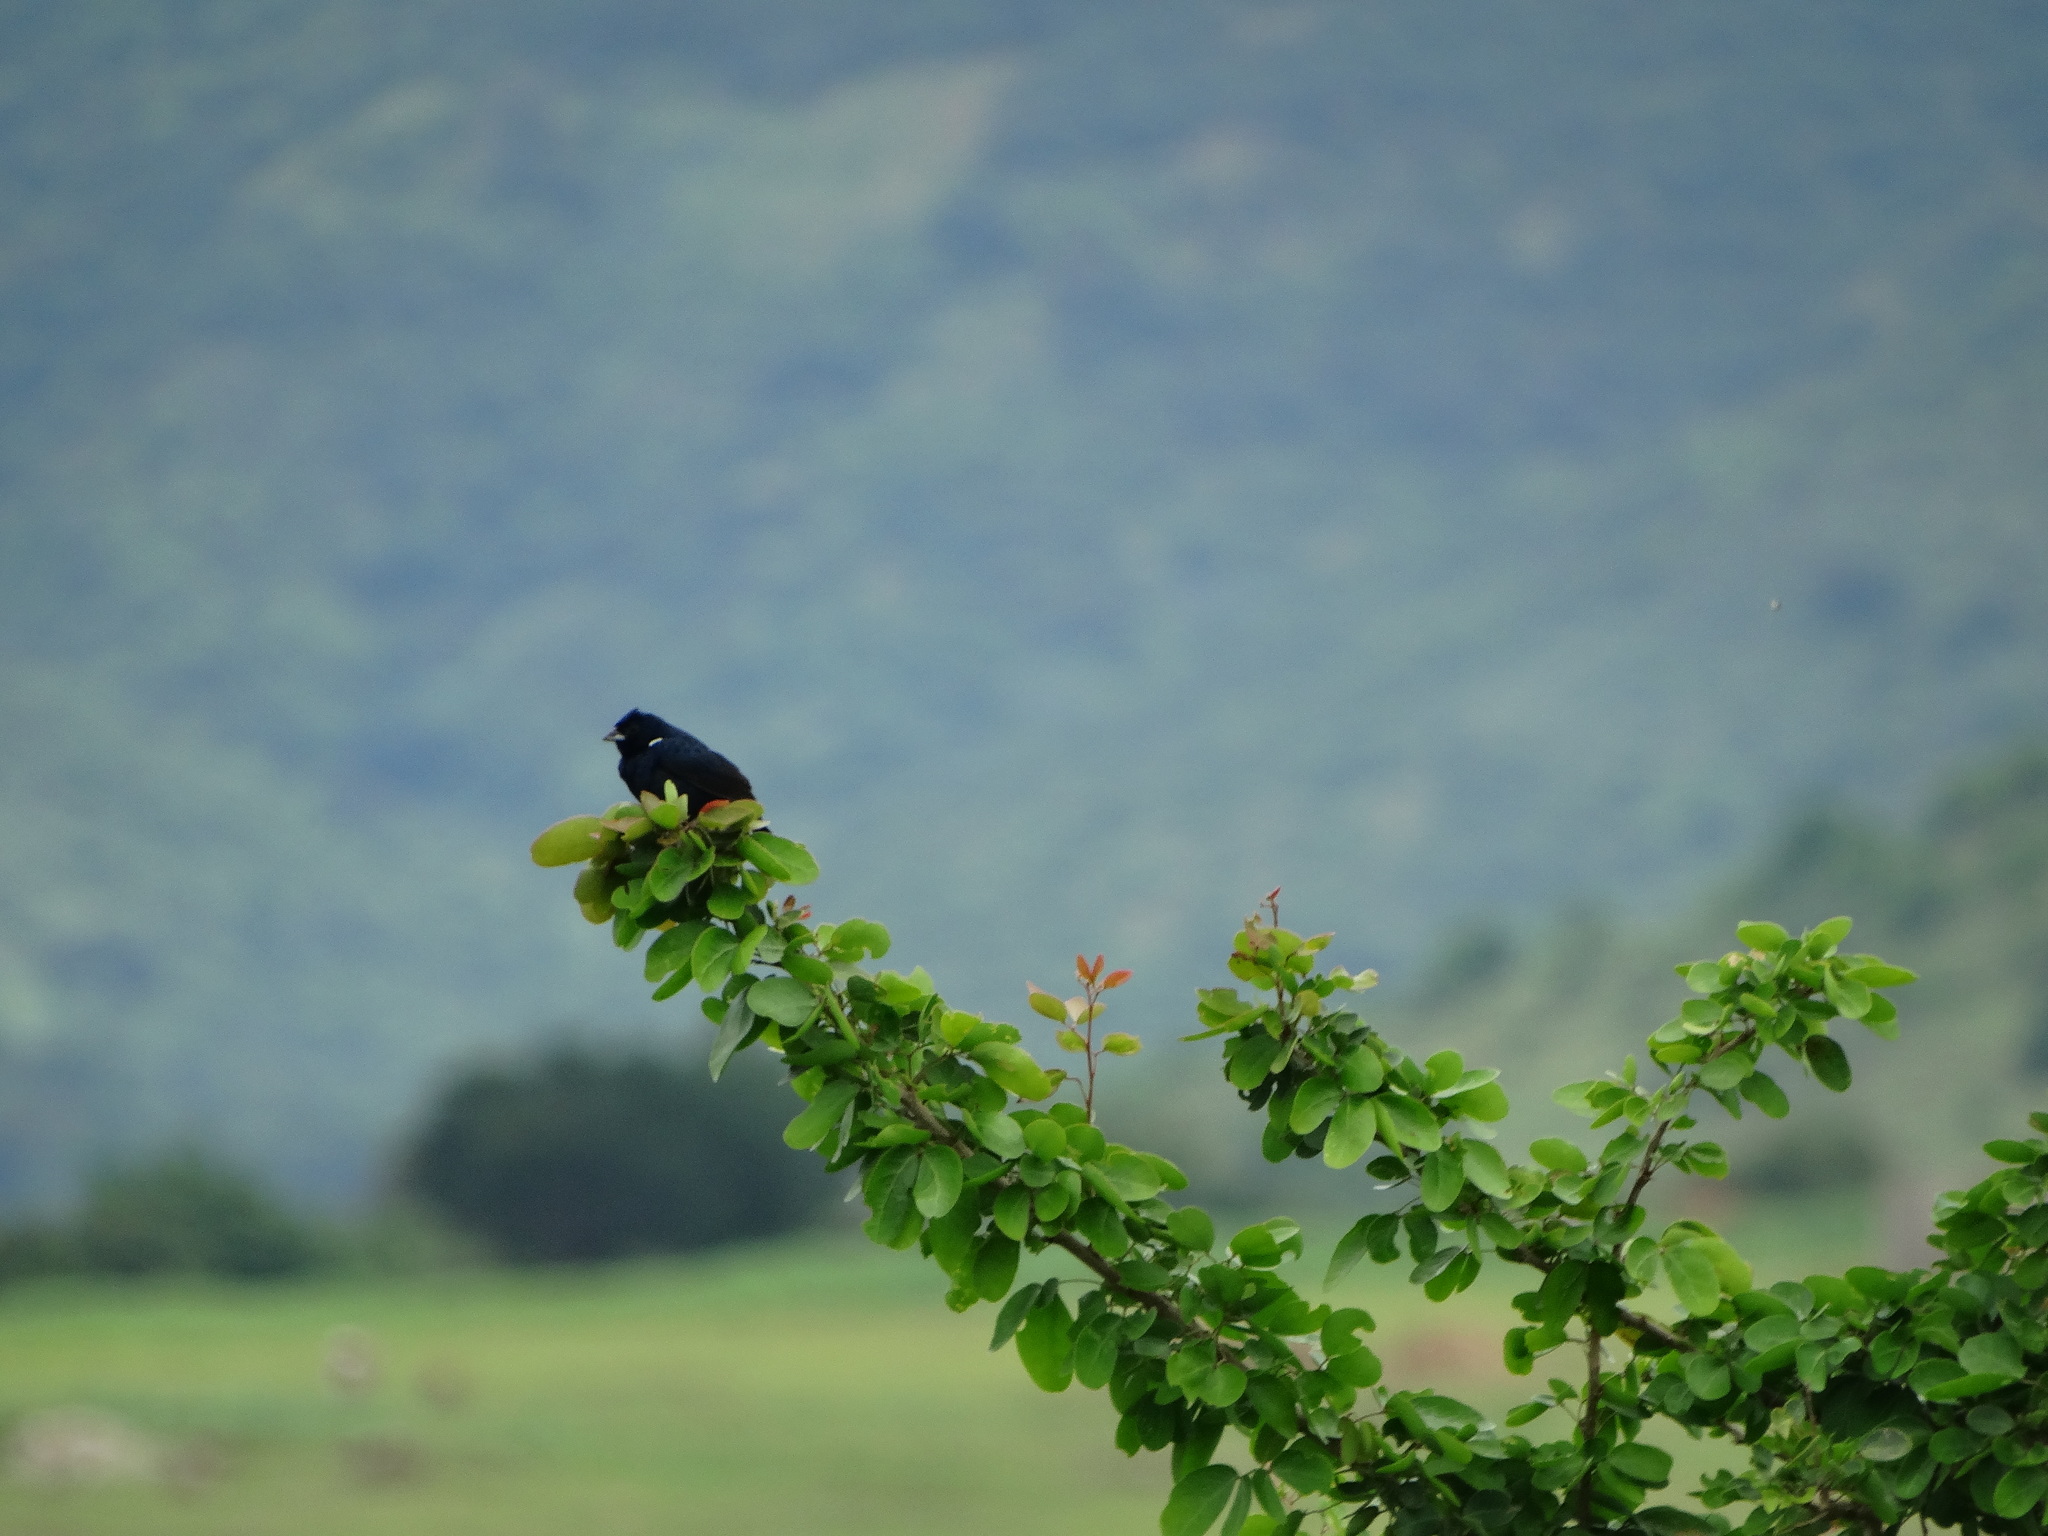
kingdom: Animalia
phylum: Chordata
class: Aves
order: Passeriformes
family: Thraupidae
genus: Volatinia
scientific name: Volatinia jacarina
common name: Blue-black grassquit
